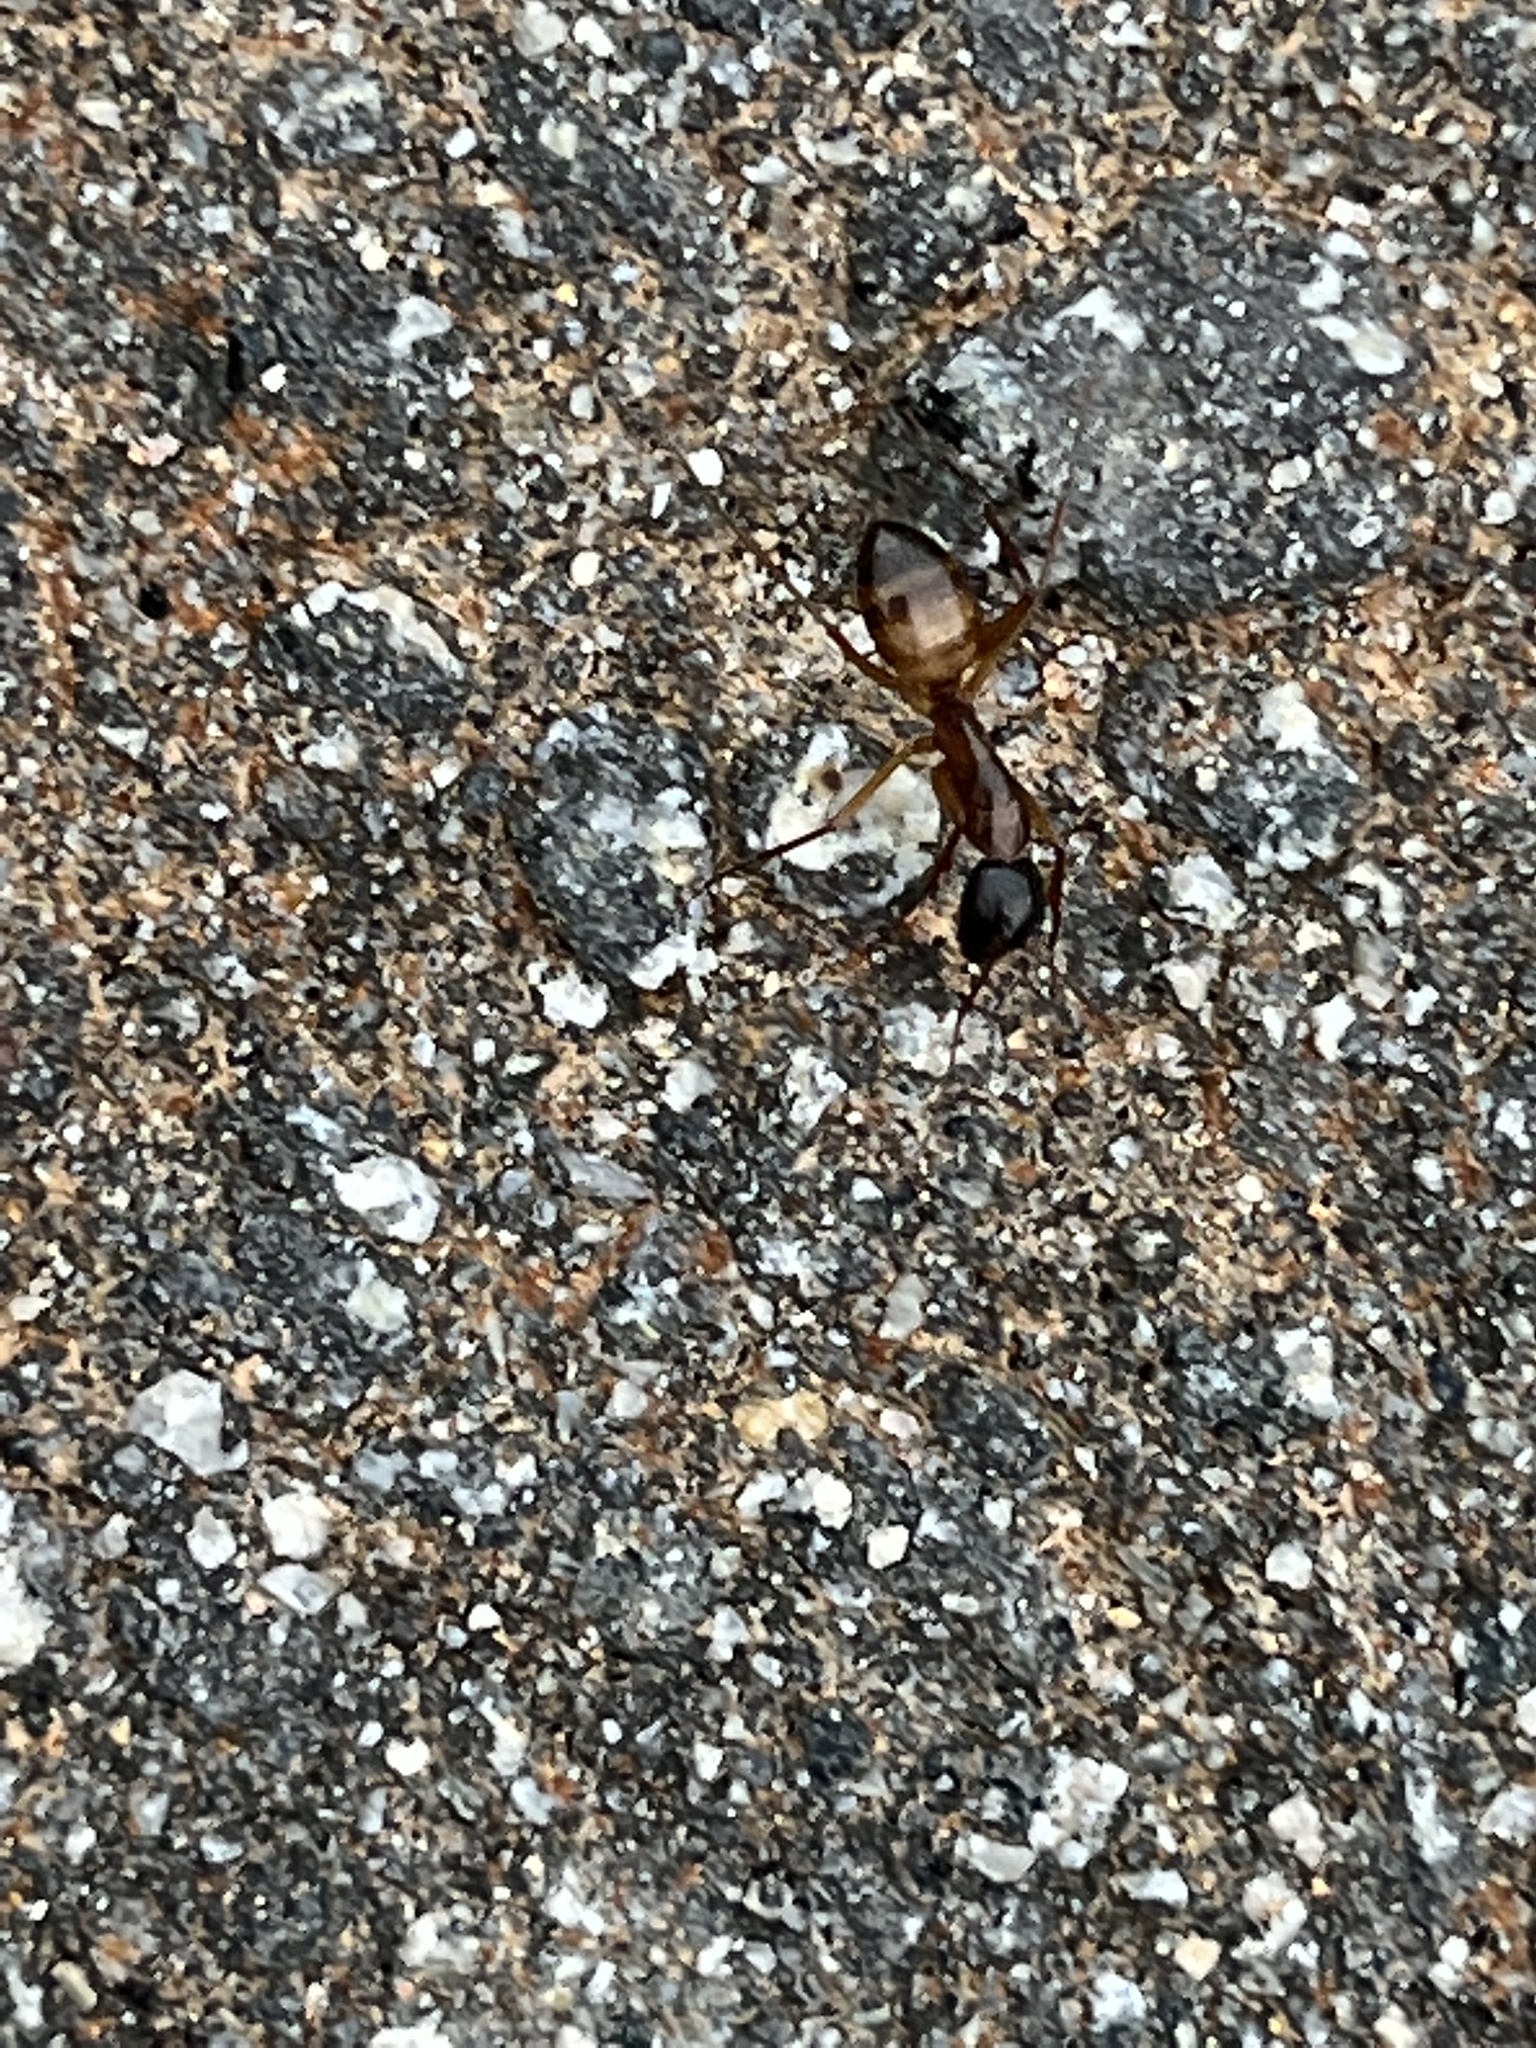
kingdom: Animalia
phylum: Arthropoda
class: Insecta
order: Hymenoptera
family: Formicidae
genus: Camponotus
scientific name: Camponotus americanus
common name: American carpenter ant
